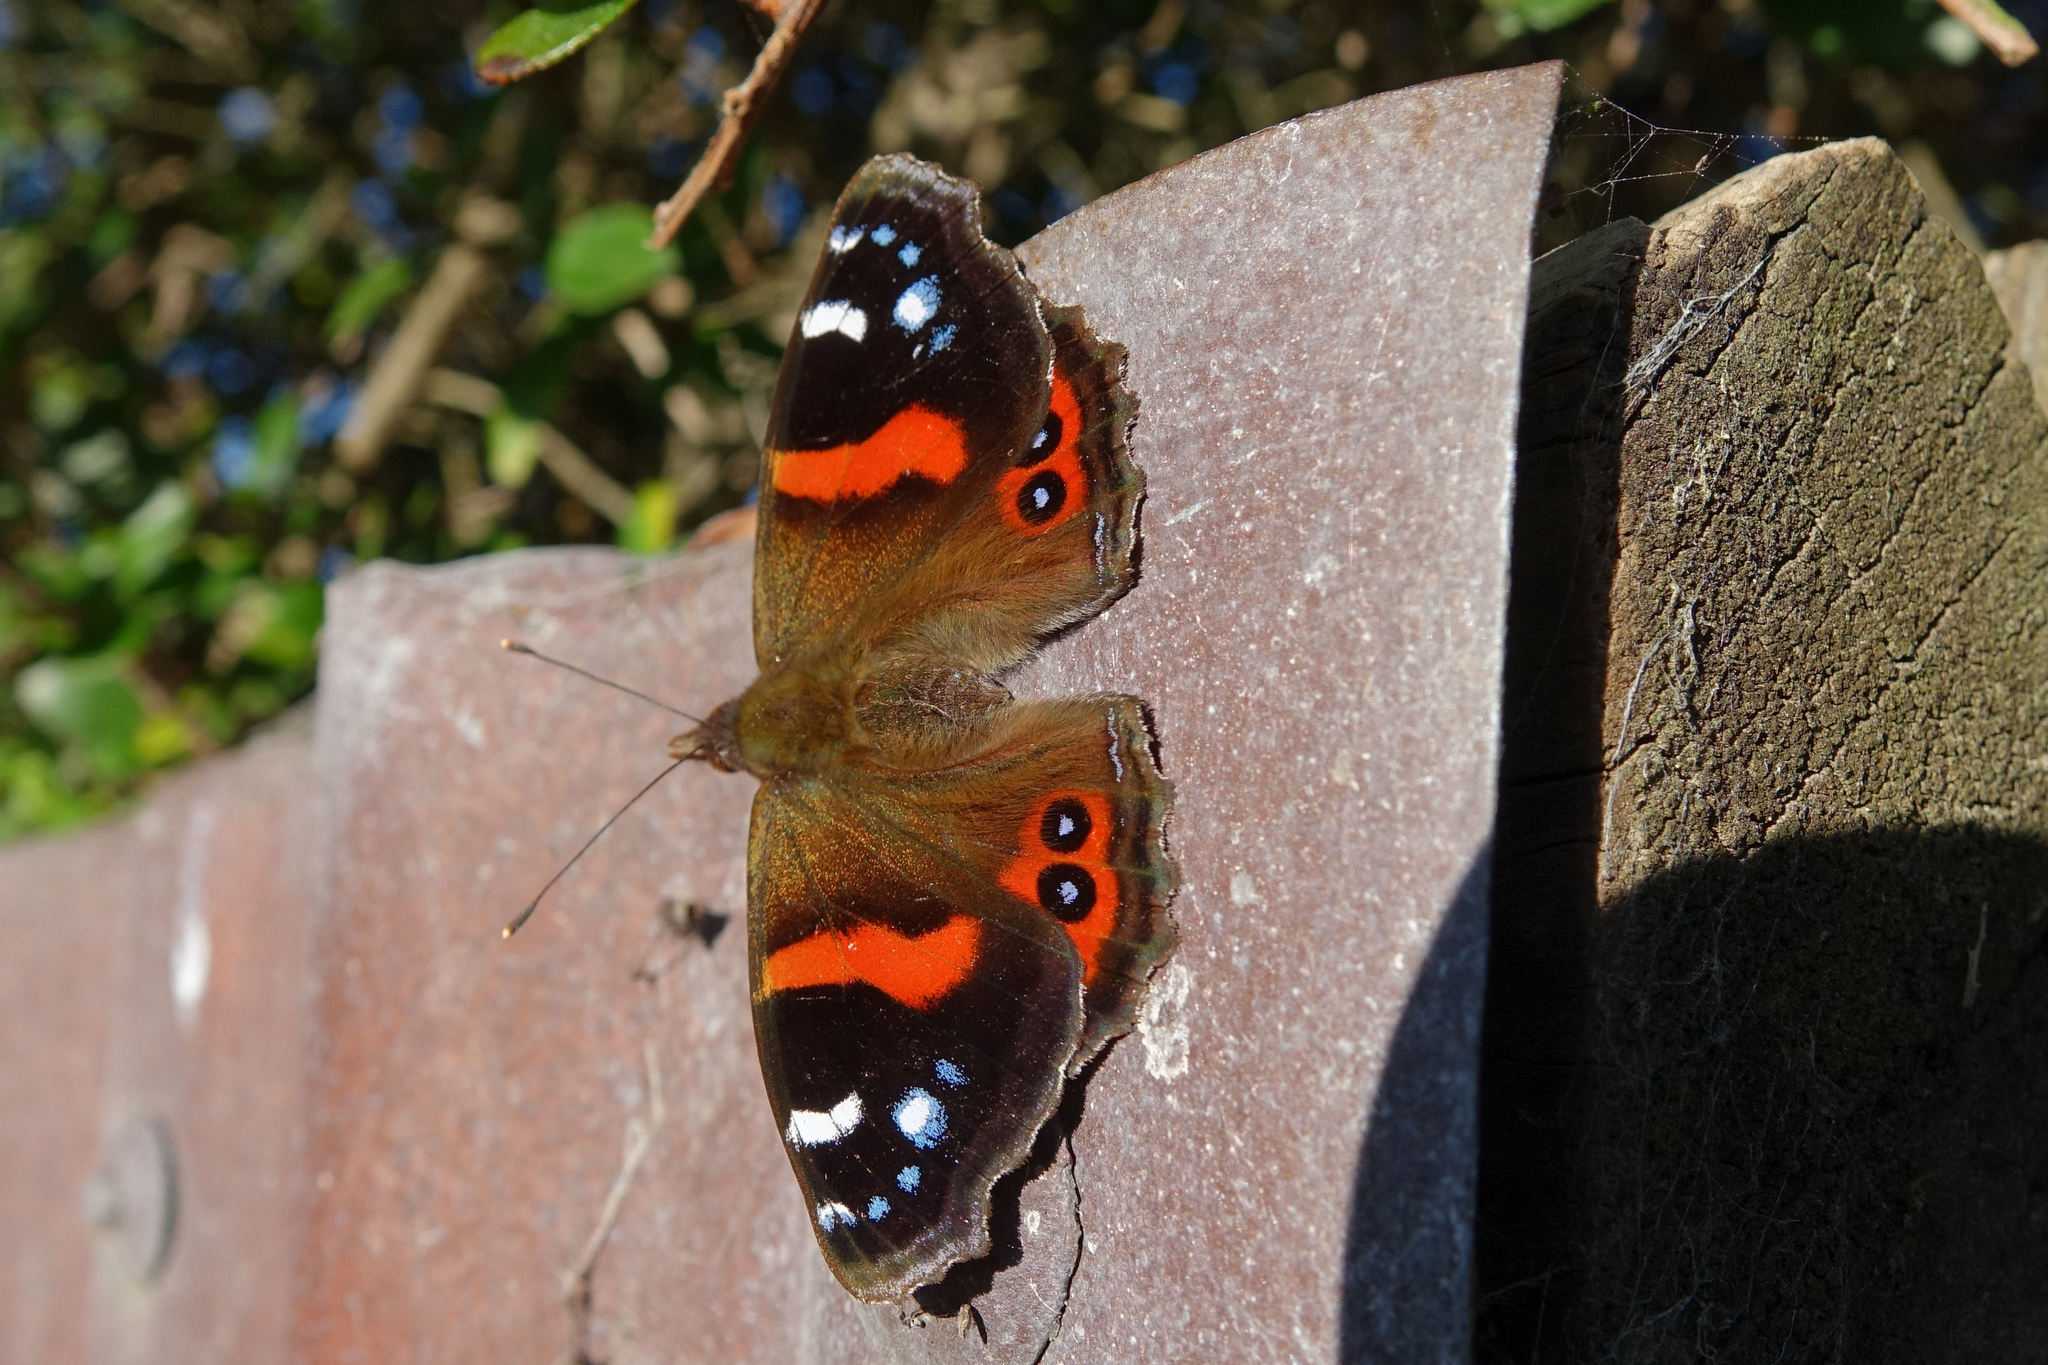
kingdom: Animalia
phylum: Arthropoda
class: Insecta
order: Lepidoptera
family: Nymphalidae
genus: Vanessa
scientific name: Vanessa gonerilla
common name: New zealand red admiral
